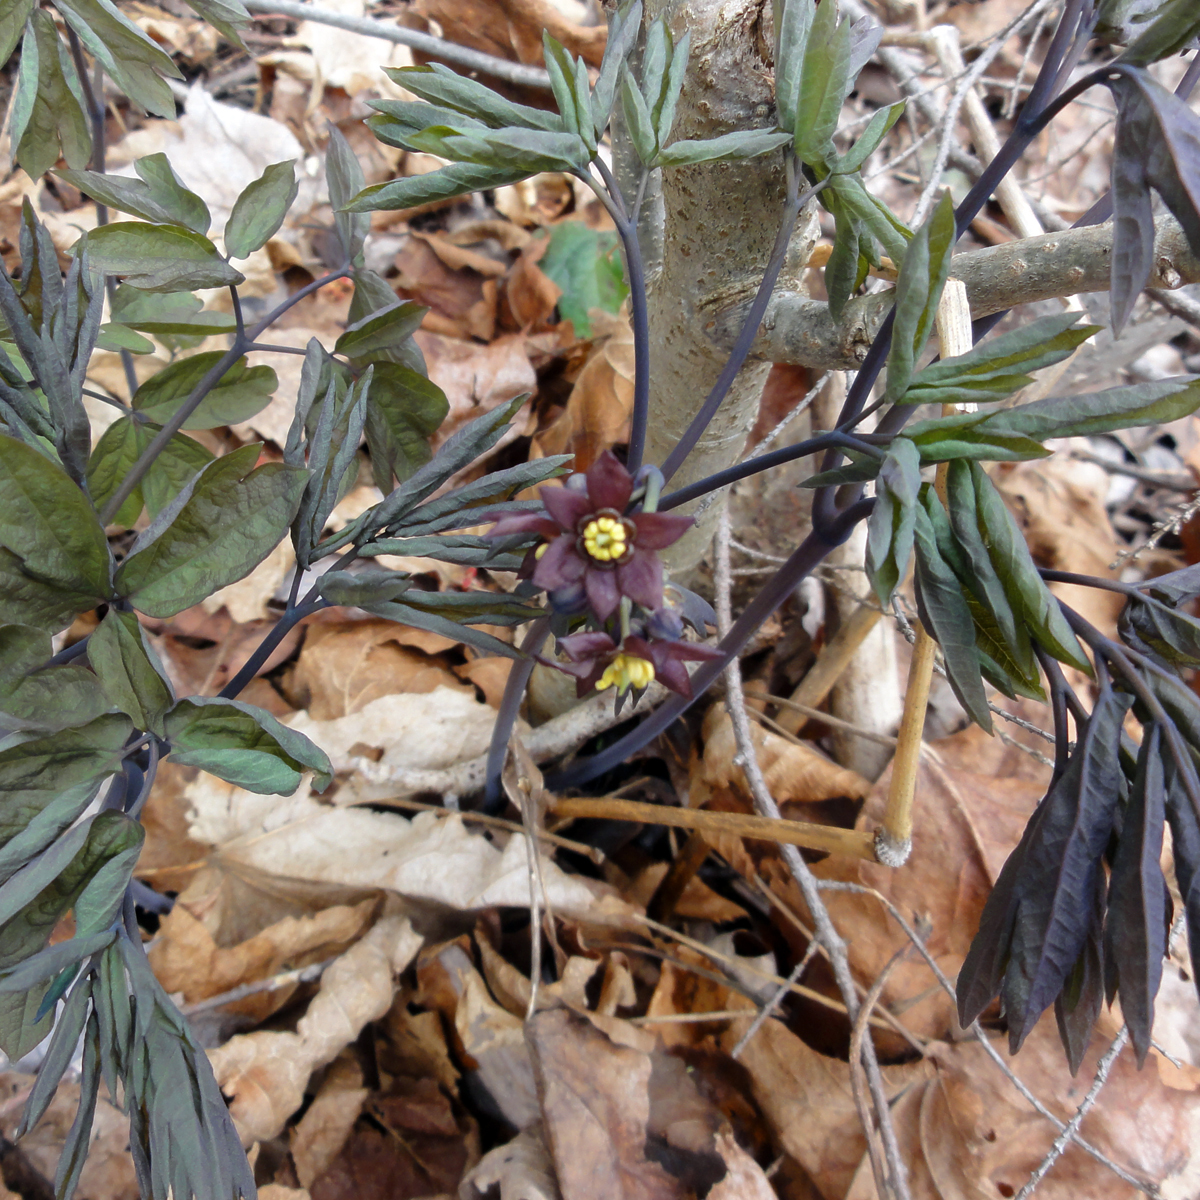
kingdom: Plantae
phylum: Tracheophyta
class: Magnoliopsida
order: Ranunculales
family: Berberidaceae
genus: Caulophyllum
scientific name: Caulophyllum giganteum
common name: Blue cohosh
